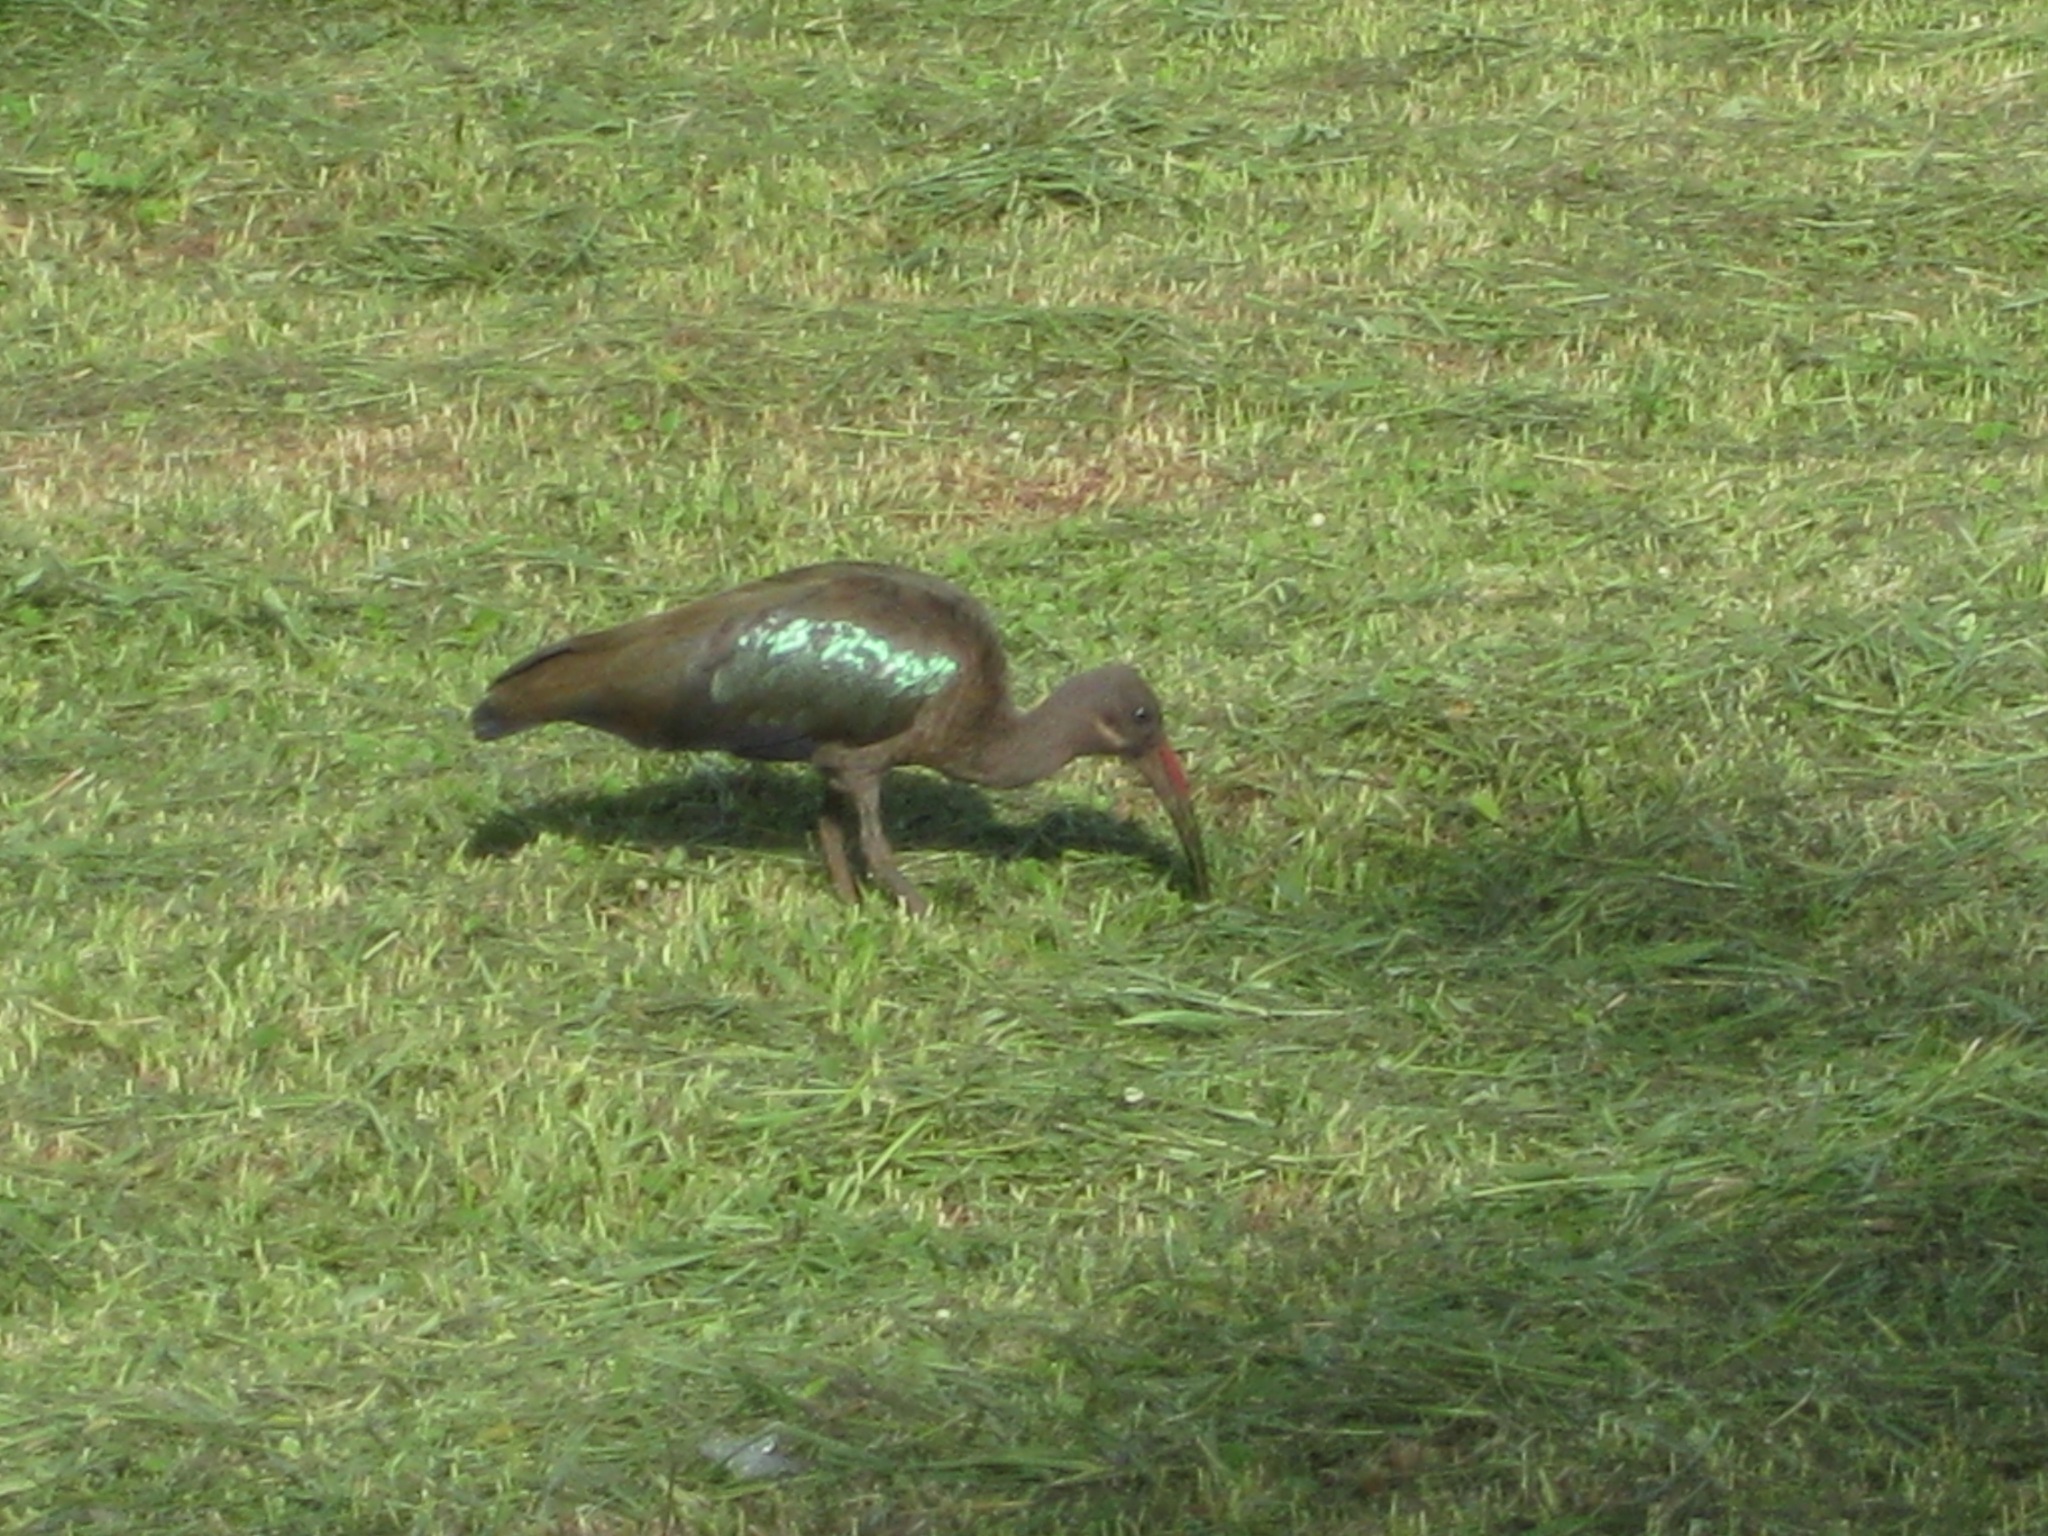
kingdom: Animalia
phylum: Chordata
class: Aves
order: Pelecaniformes
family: Threskiornithidae
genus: Bostrychia
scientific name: Bostrychia hagedash
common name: Hadada ibis
